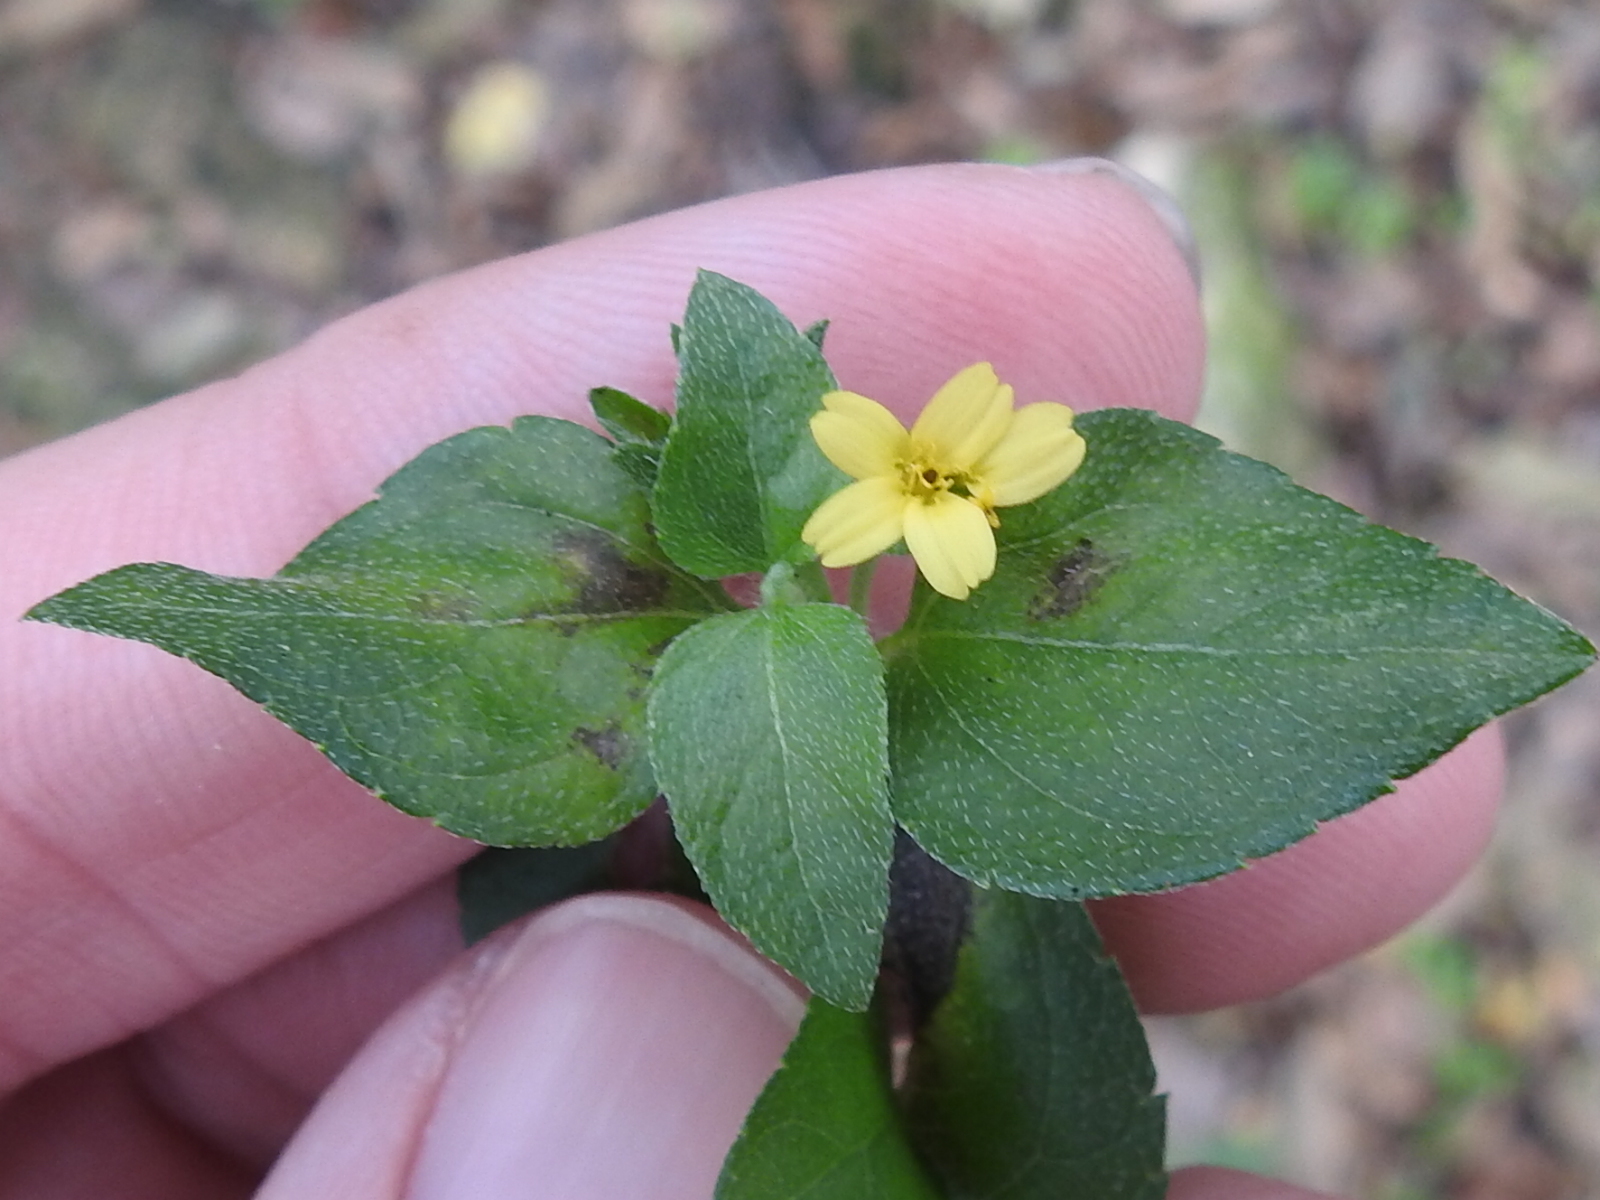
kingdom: Plantae
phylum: Tracheophyta
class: Magnoliopsida
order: Asterales
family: Asteraceae
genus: Calyptocarpus
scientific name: Calyptocarpus vialis
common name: Straggler daisy
